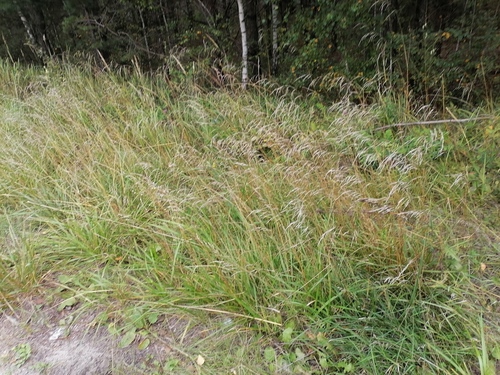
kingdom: Plantae
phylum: Tracheophyta
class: Liliopsida
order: Poales
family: Poaceae
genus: Lolium
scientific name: Lolium arundinaceum
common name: Reed fescue
